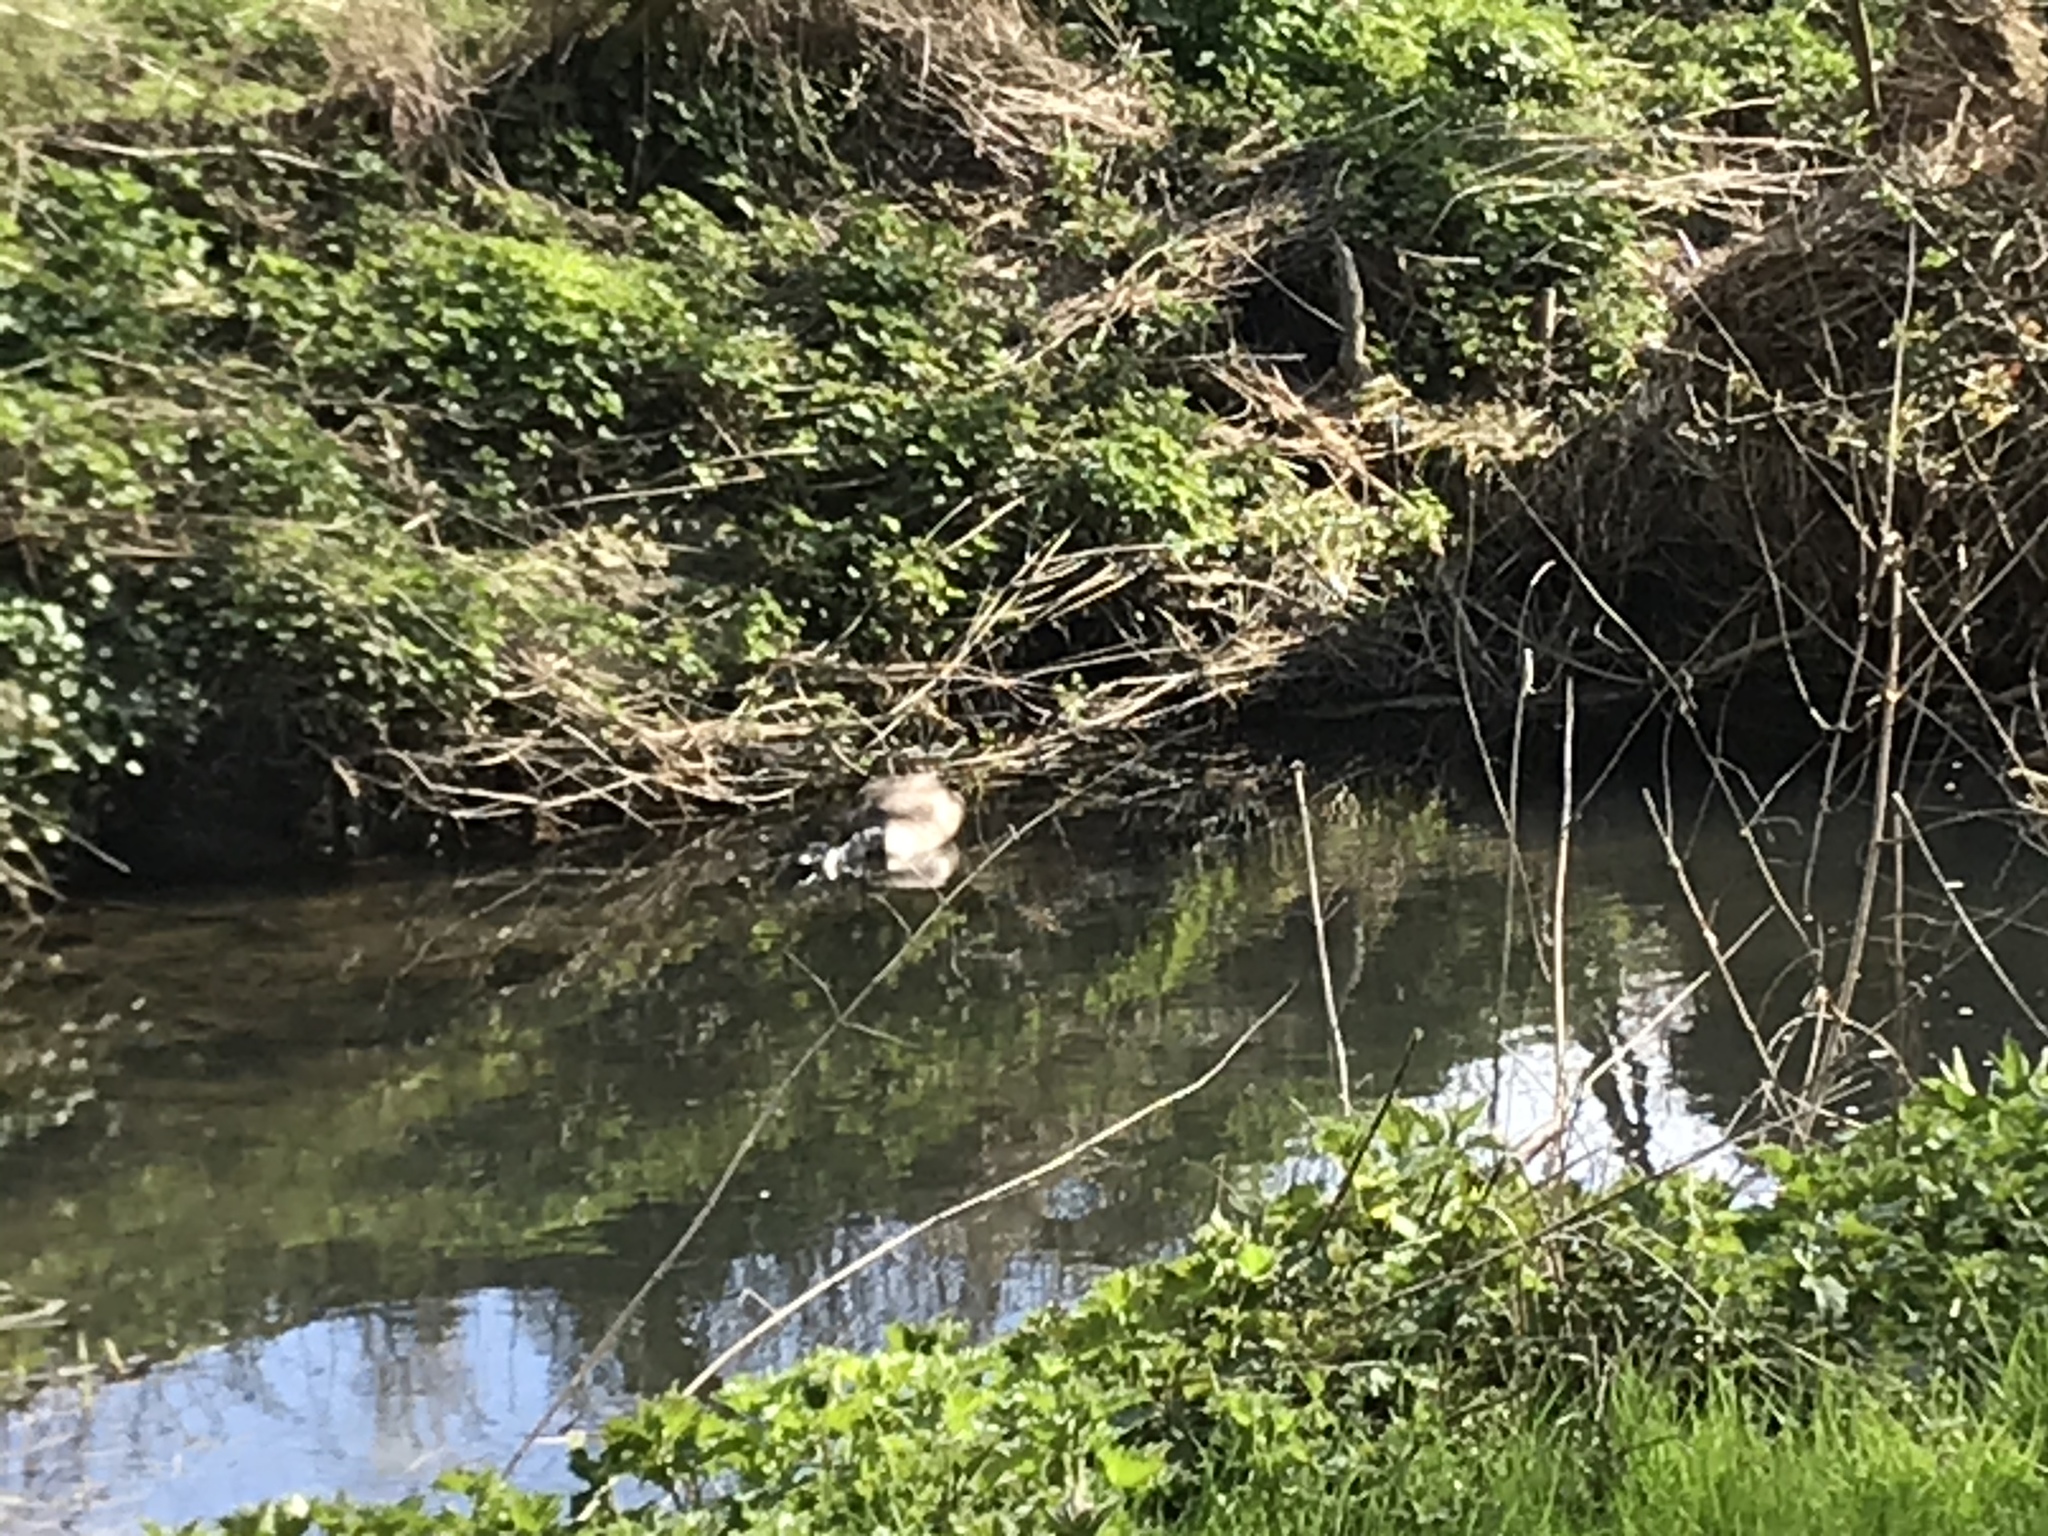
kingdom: Animalia
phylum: Chordata
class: Aves
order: Anseriformes
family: Anatidae
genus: Branta
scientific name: Branta canadensis
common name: Canada goose
